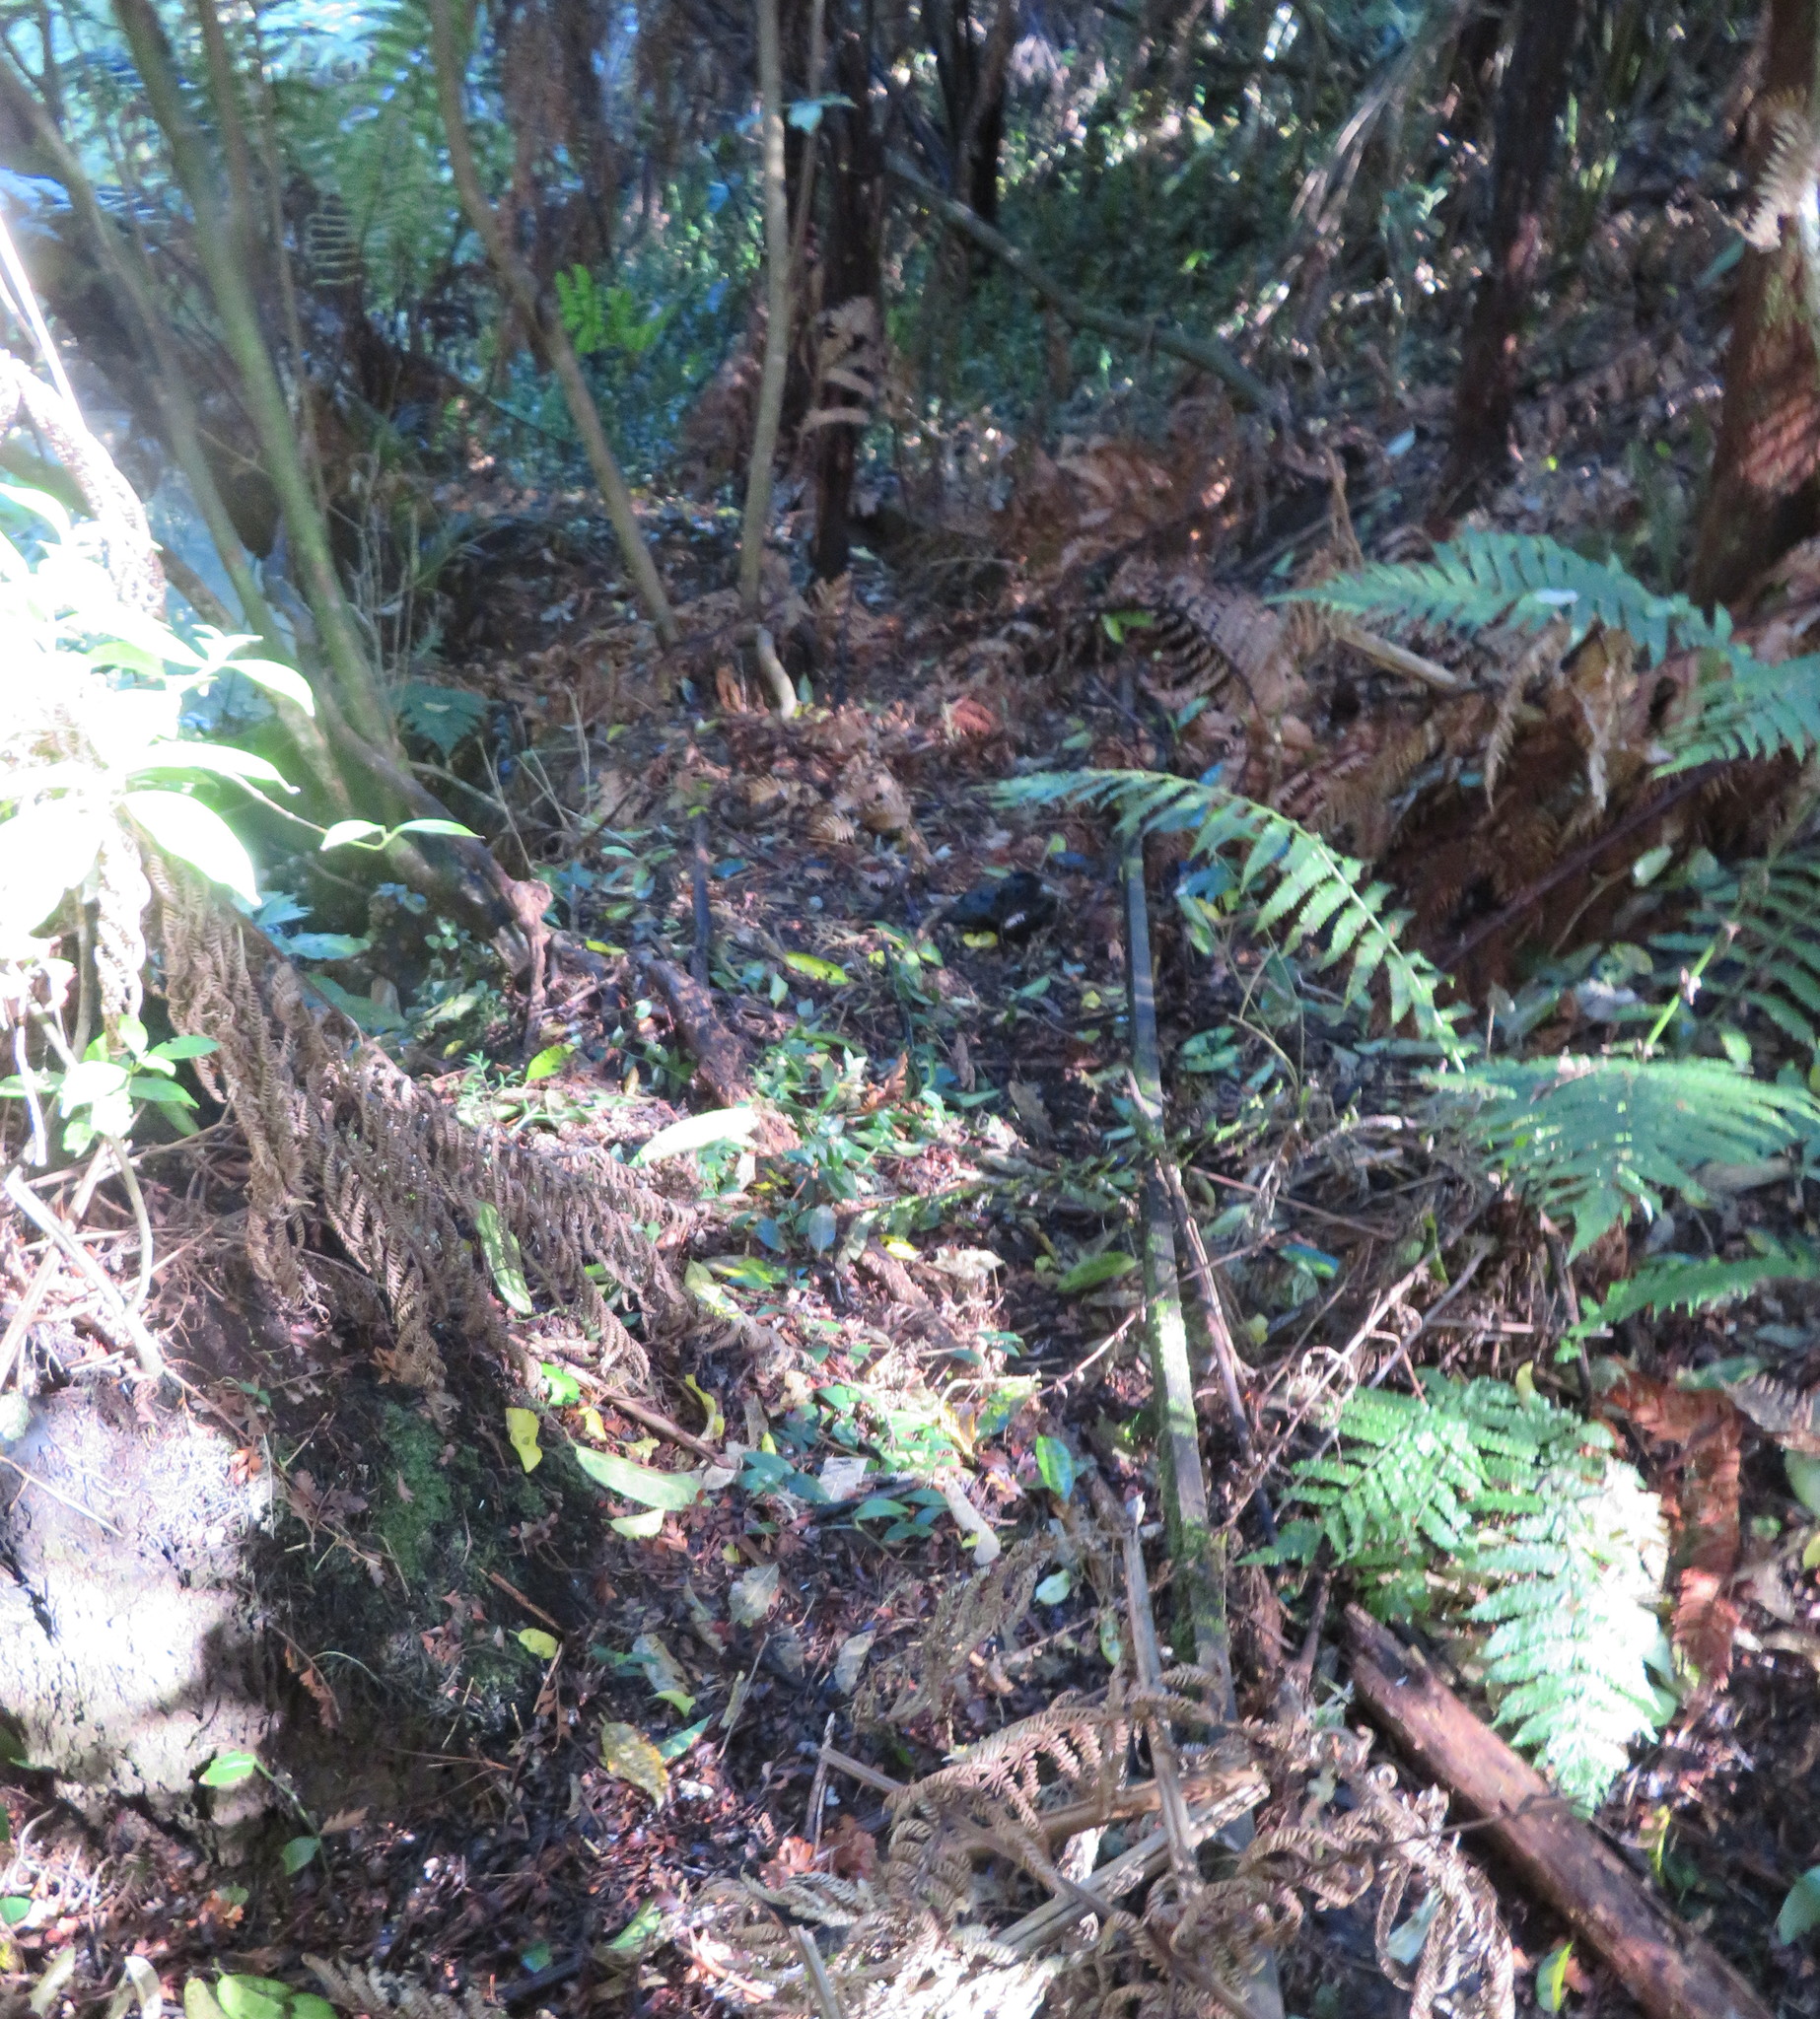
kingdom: Plantae
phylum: Tracheophyta
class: Liliopsida
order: Commelinales
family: Commelinaceae
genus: Tradescantia
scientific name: Tradescantia fluminensis
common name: Wandering-jew
